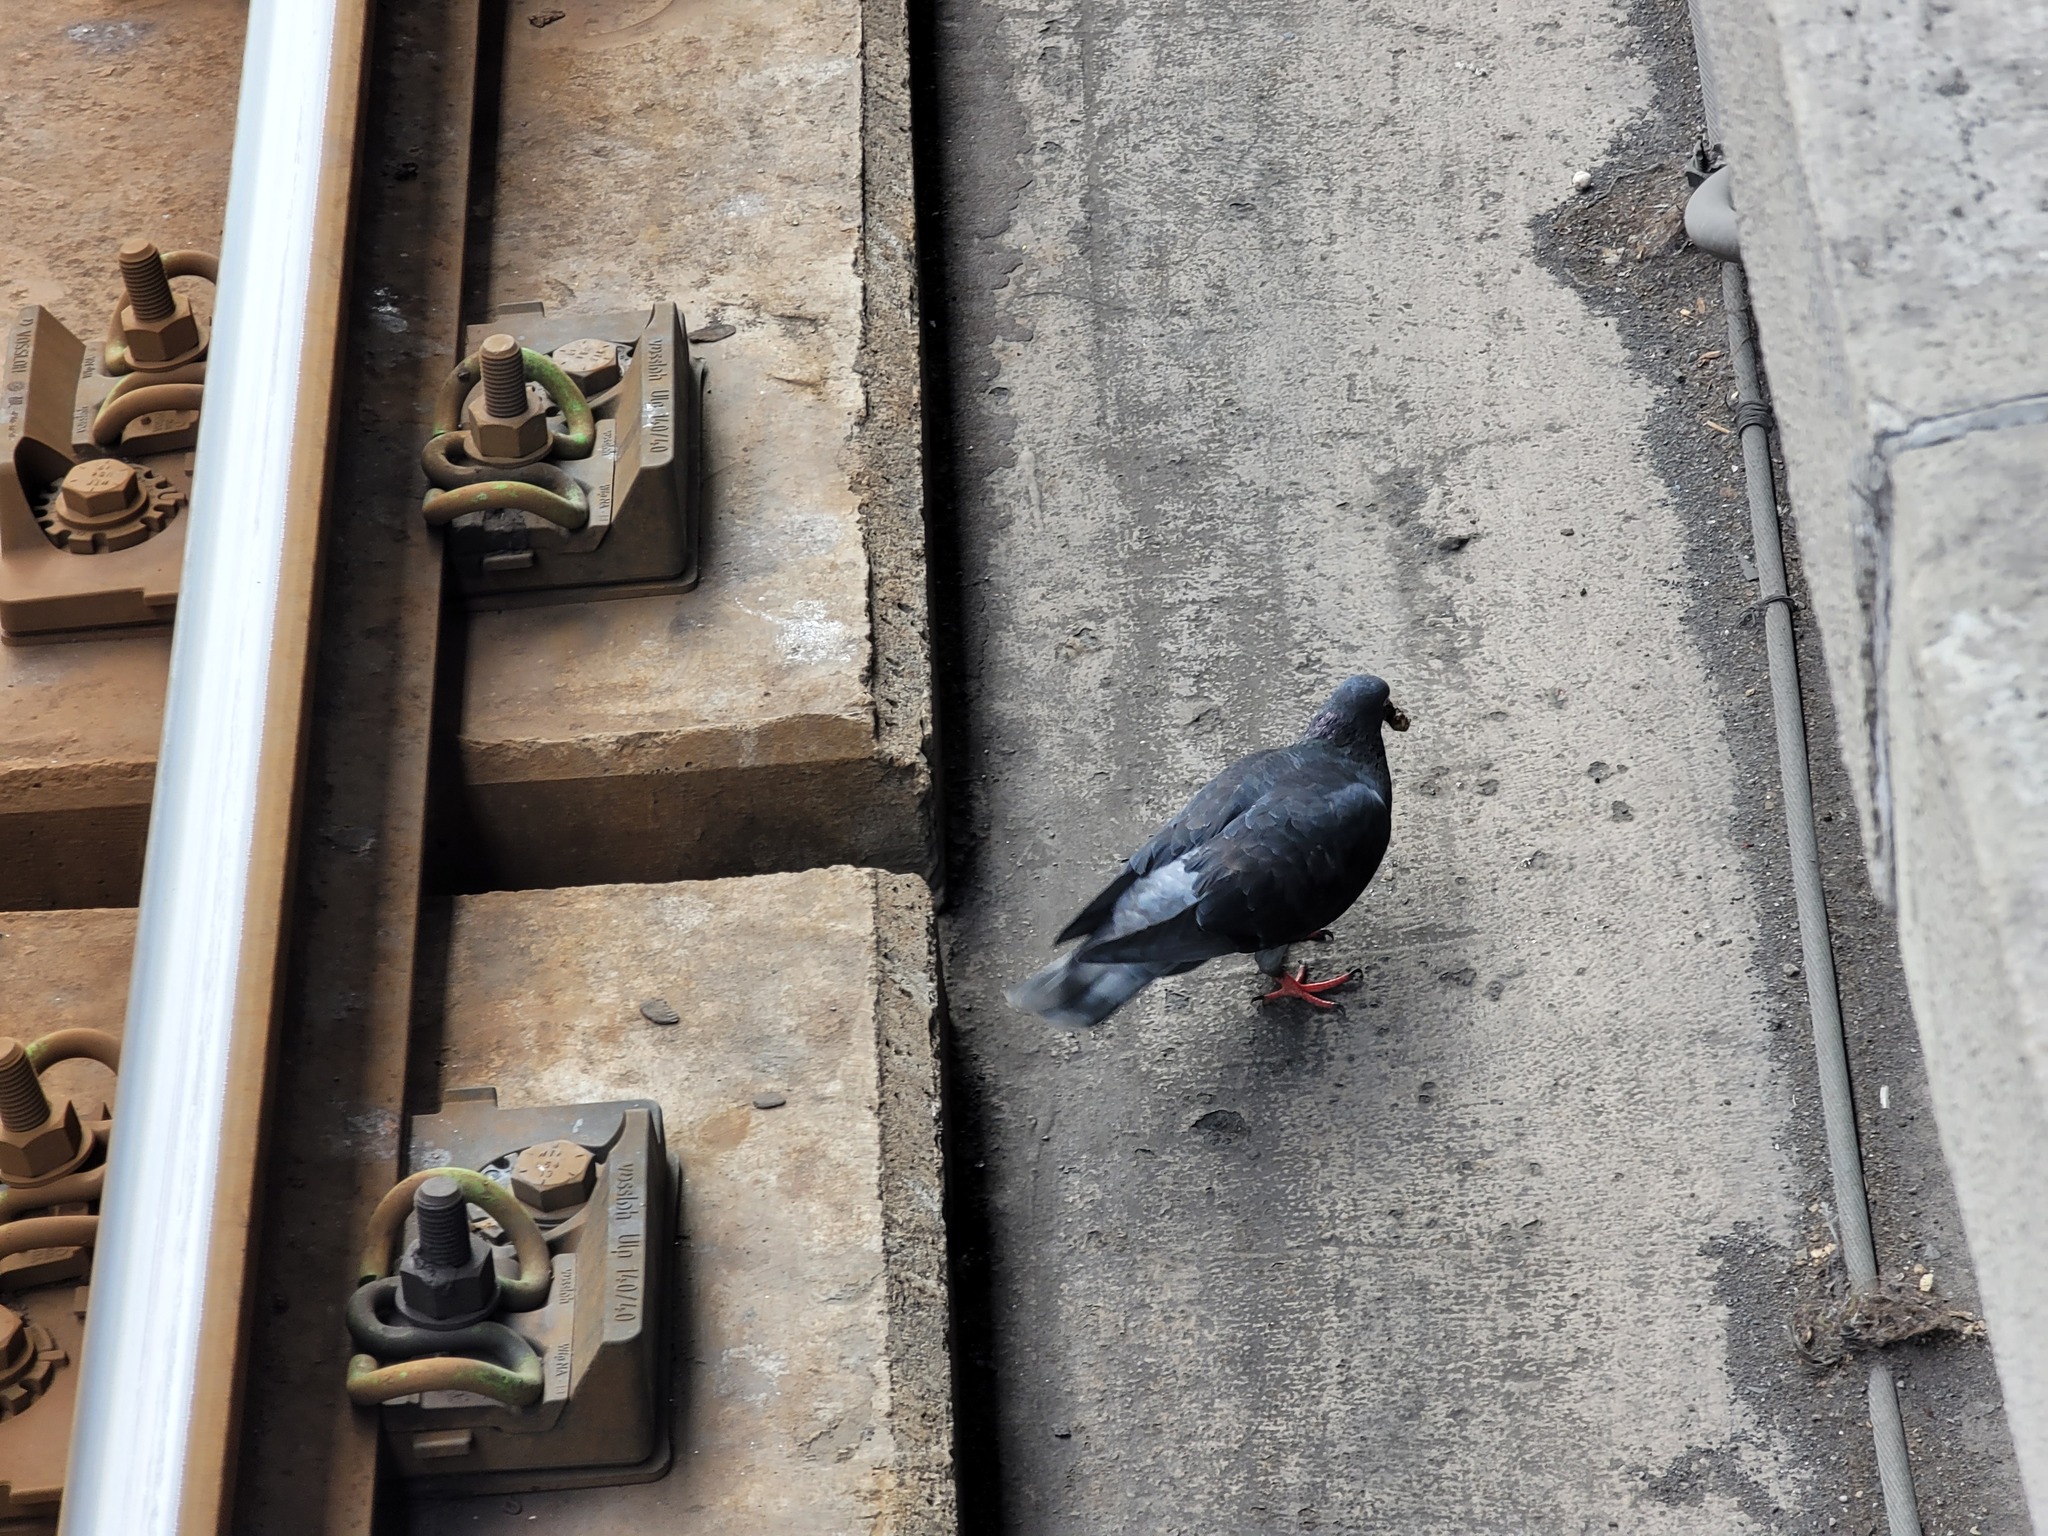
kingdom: Animalia
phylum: Chordata
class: Aves
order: Columbiformes
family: Columbidae
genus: Columba
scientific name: Columba livia
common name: Rock pigeon
